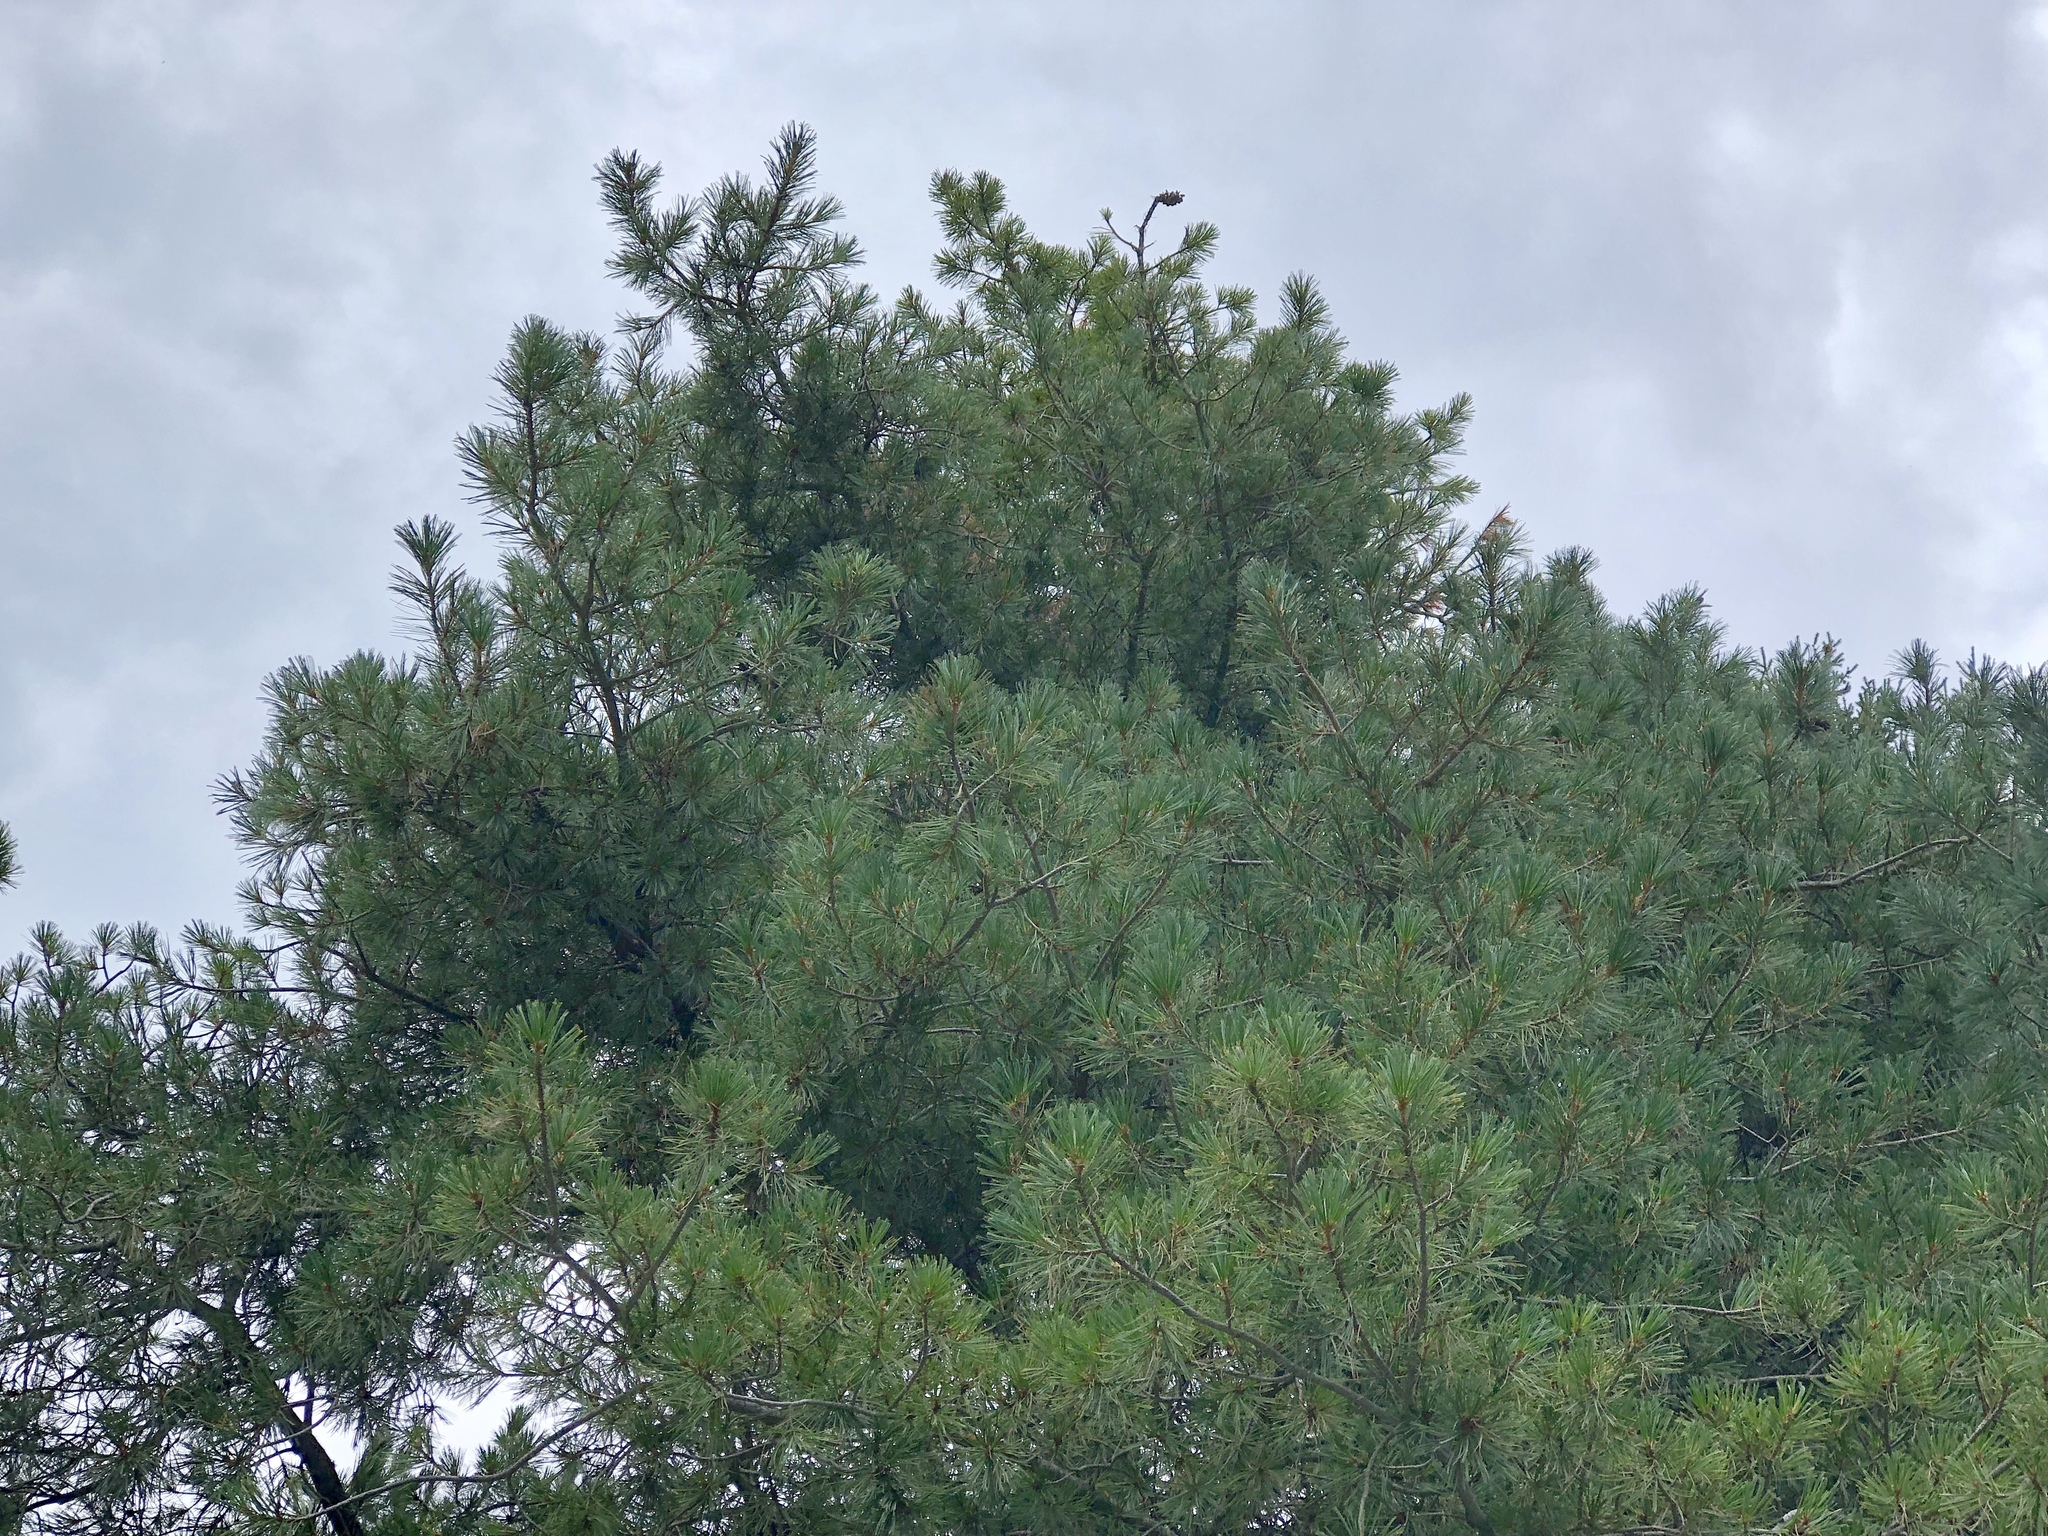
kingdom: Plantae
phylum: Tracheophyta
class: Pinopsida
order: Pinales
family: Pinaceae
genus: Pinus
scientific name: Pinus strobiformis
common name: Southwestern white pine
